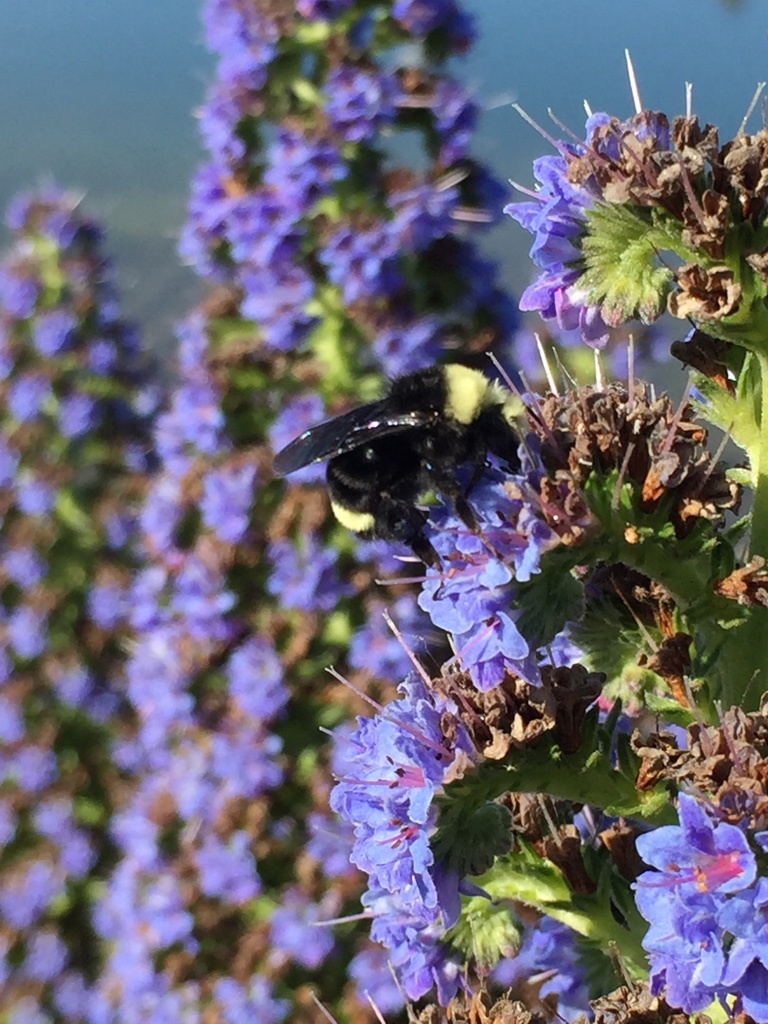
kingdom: Animalia
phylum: Arthropoda
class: Insecta
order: Hymenoptera
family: Apidae
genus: Bombus
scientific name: Bombus vosnesenskii
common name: Vosnesensky bumble bee
